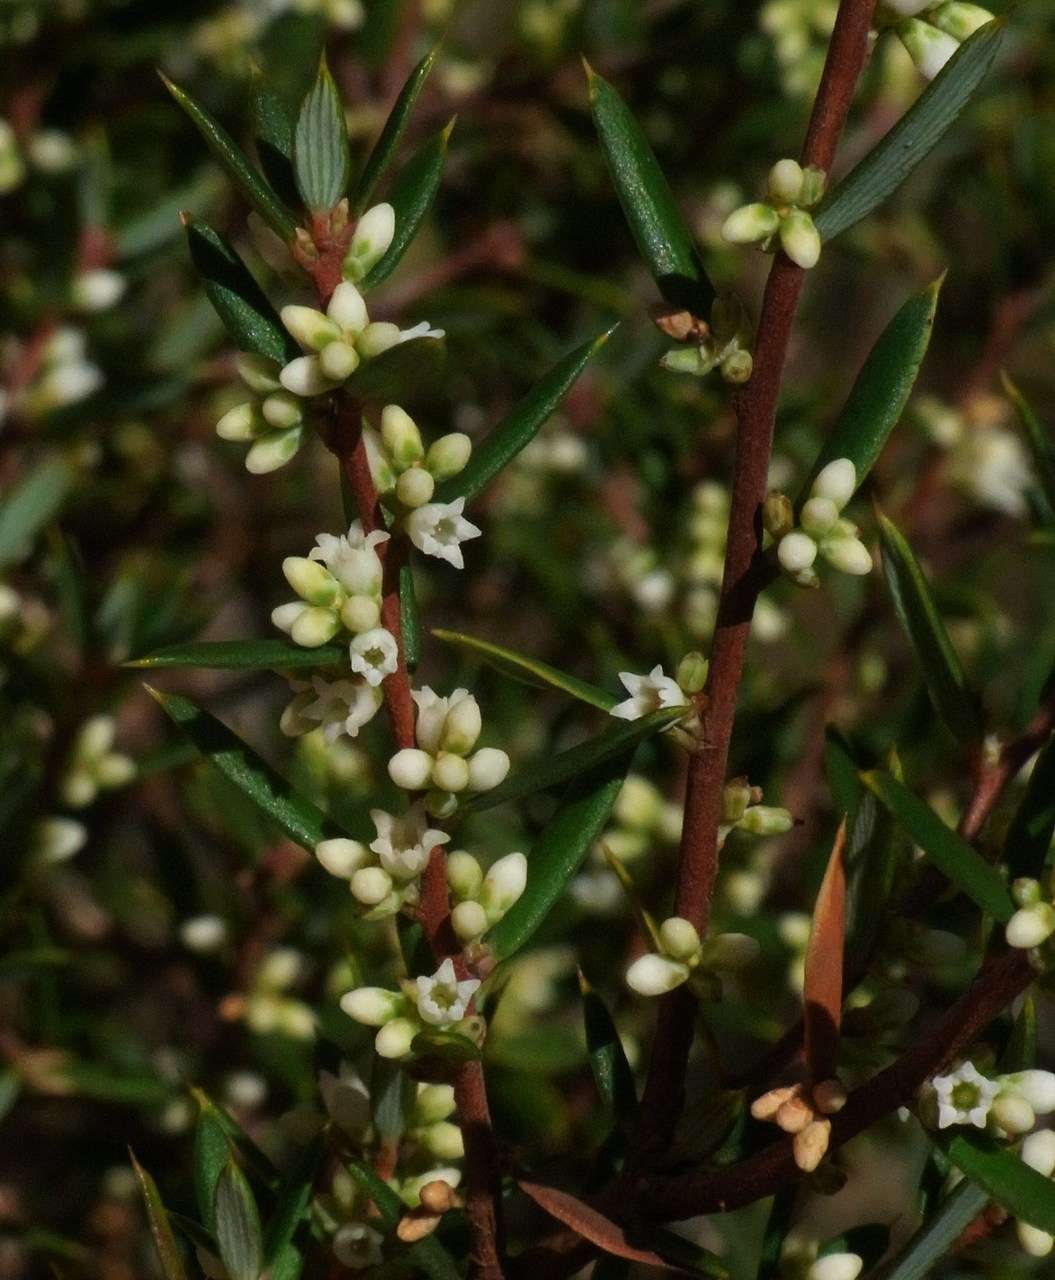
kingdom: Plantae
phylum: Tracheophyta
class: Magnoliopsida
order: Ericales
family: Ericaceae
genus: Monotoca
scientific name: Monotoca scoparia
